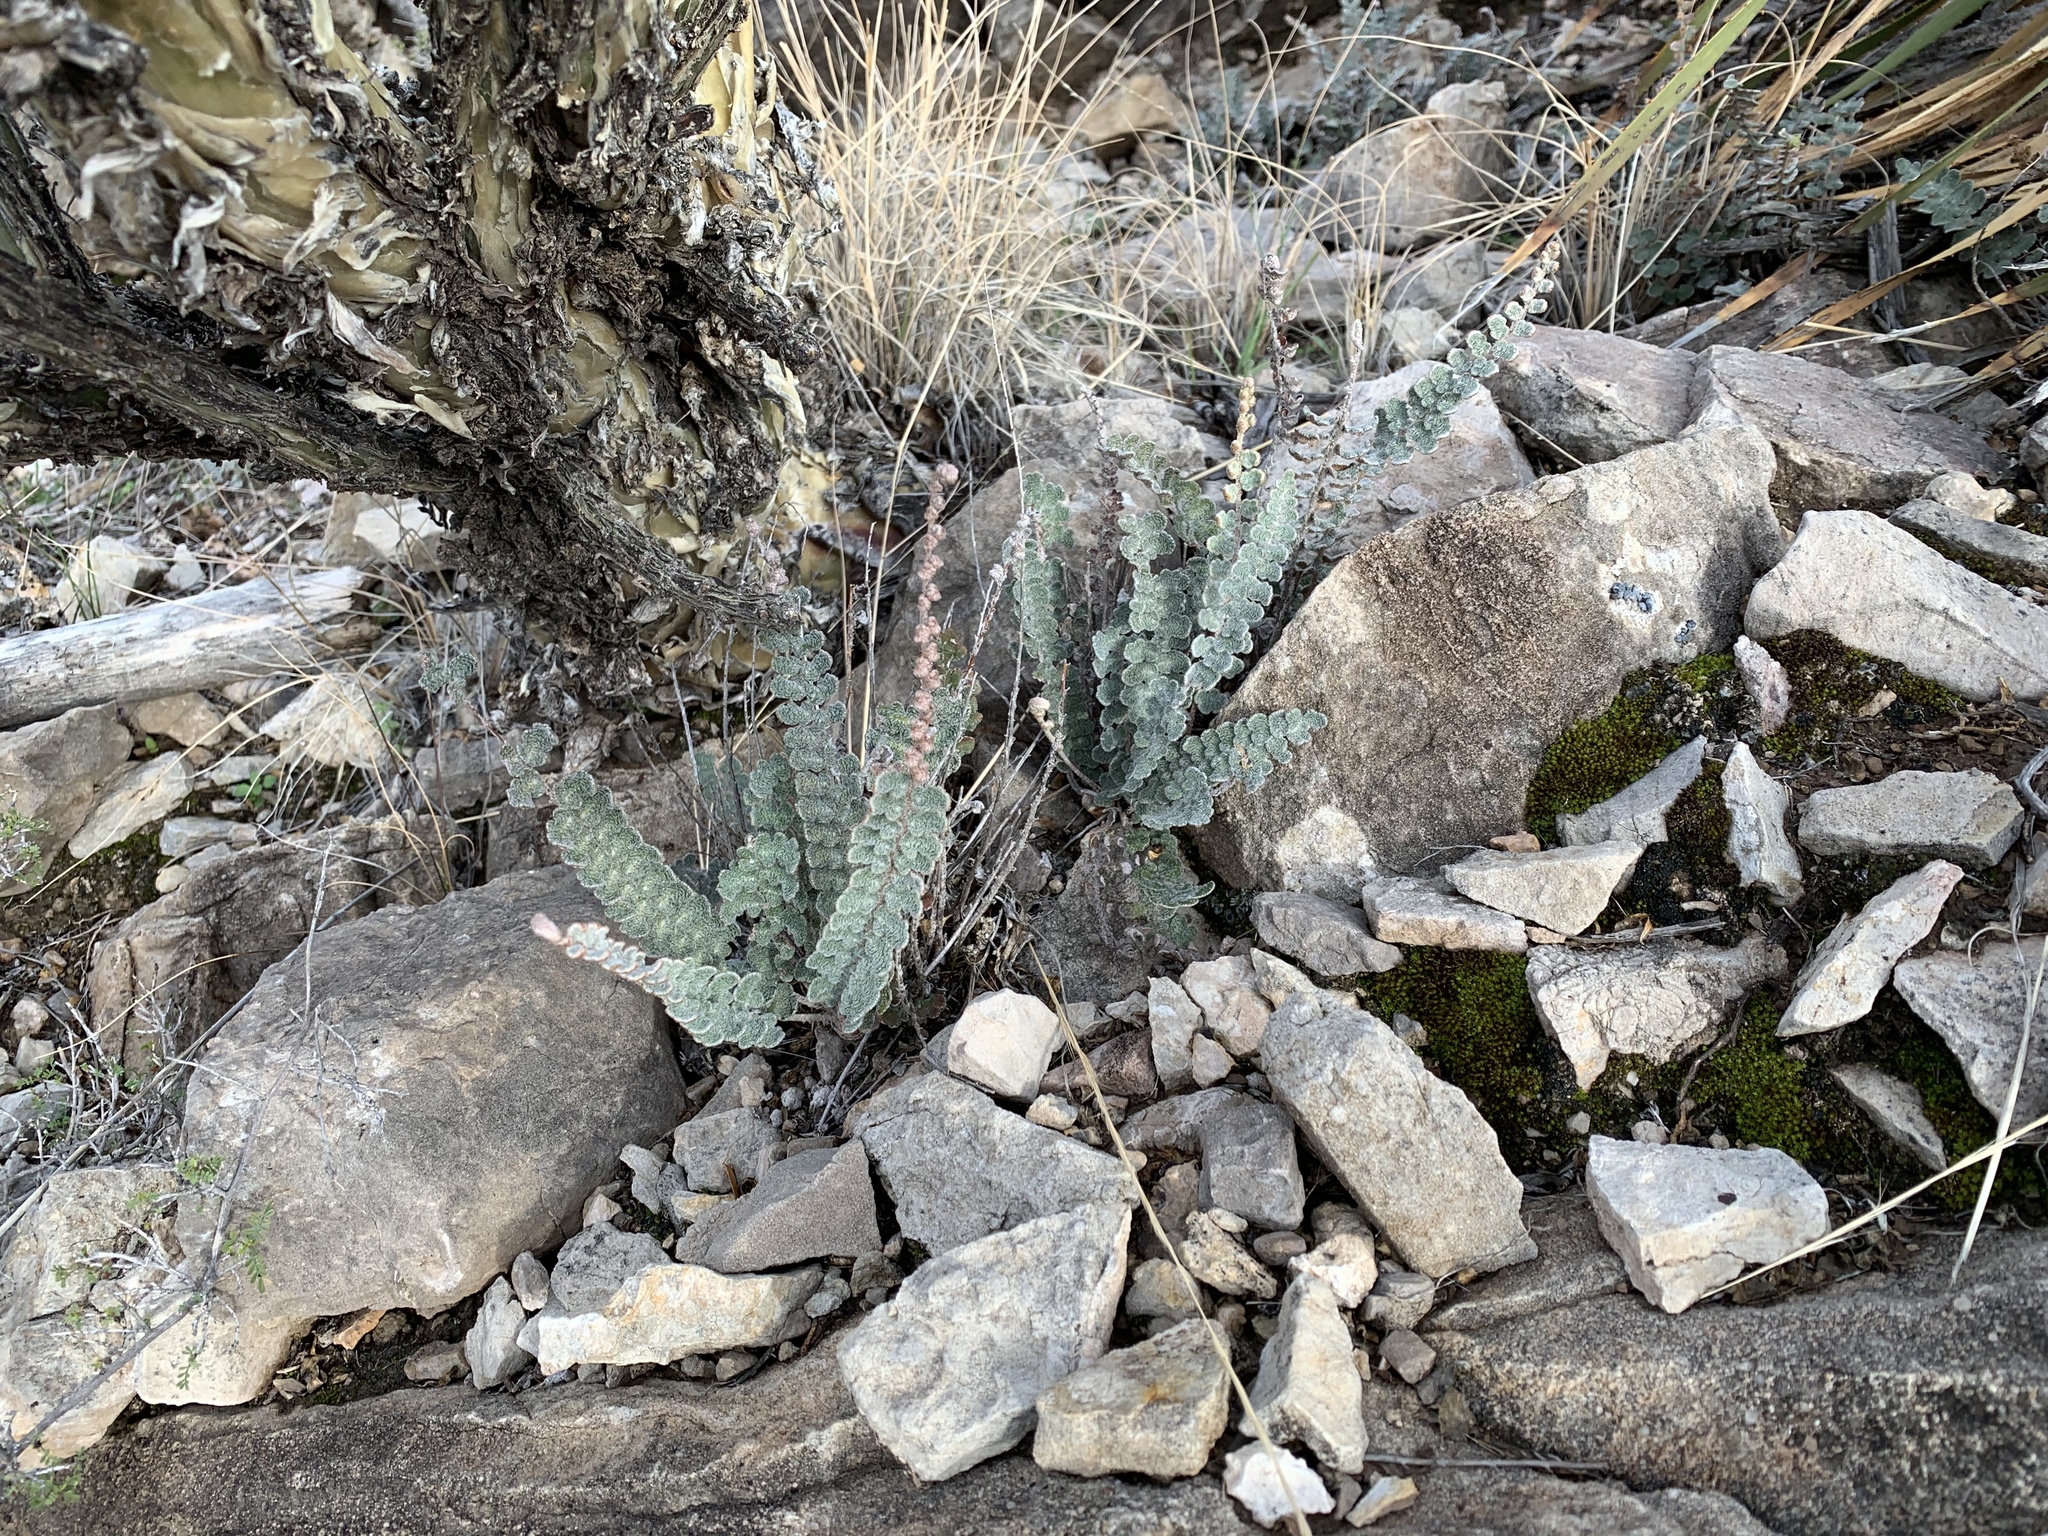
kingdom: Plantae
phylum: Tracheophyta
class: Polypodiopsida
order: Polypodiales
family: Pteridaceae
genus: Astrolepis
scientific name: Astrolepis integerrima
